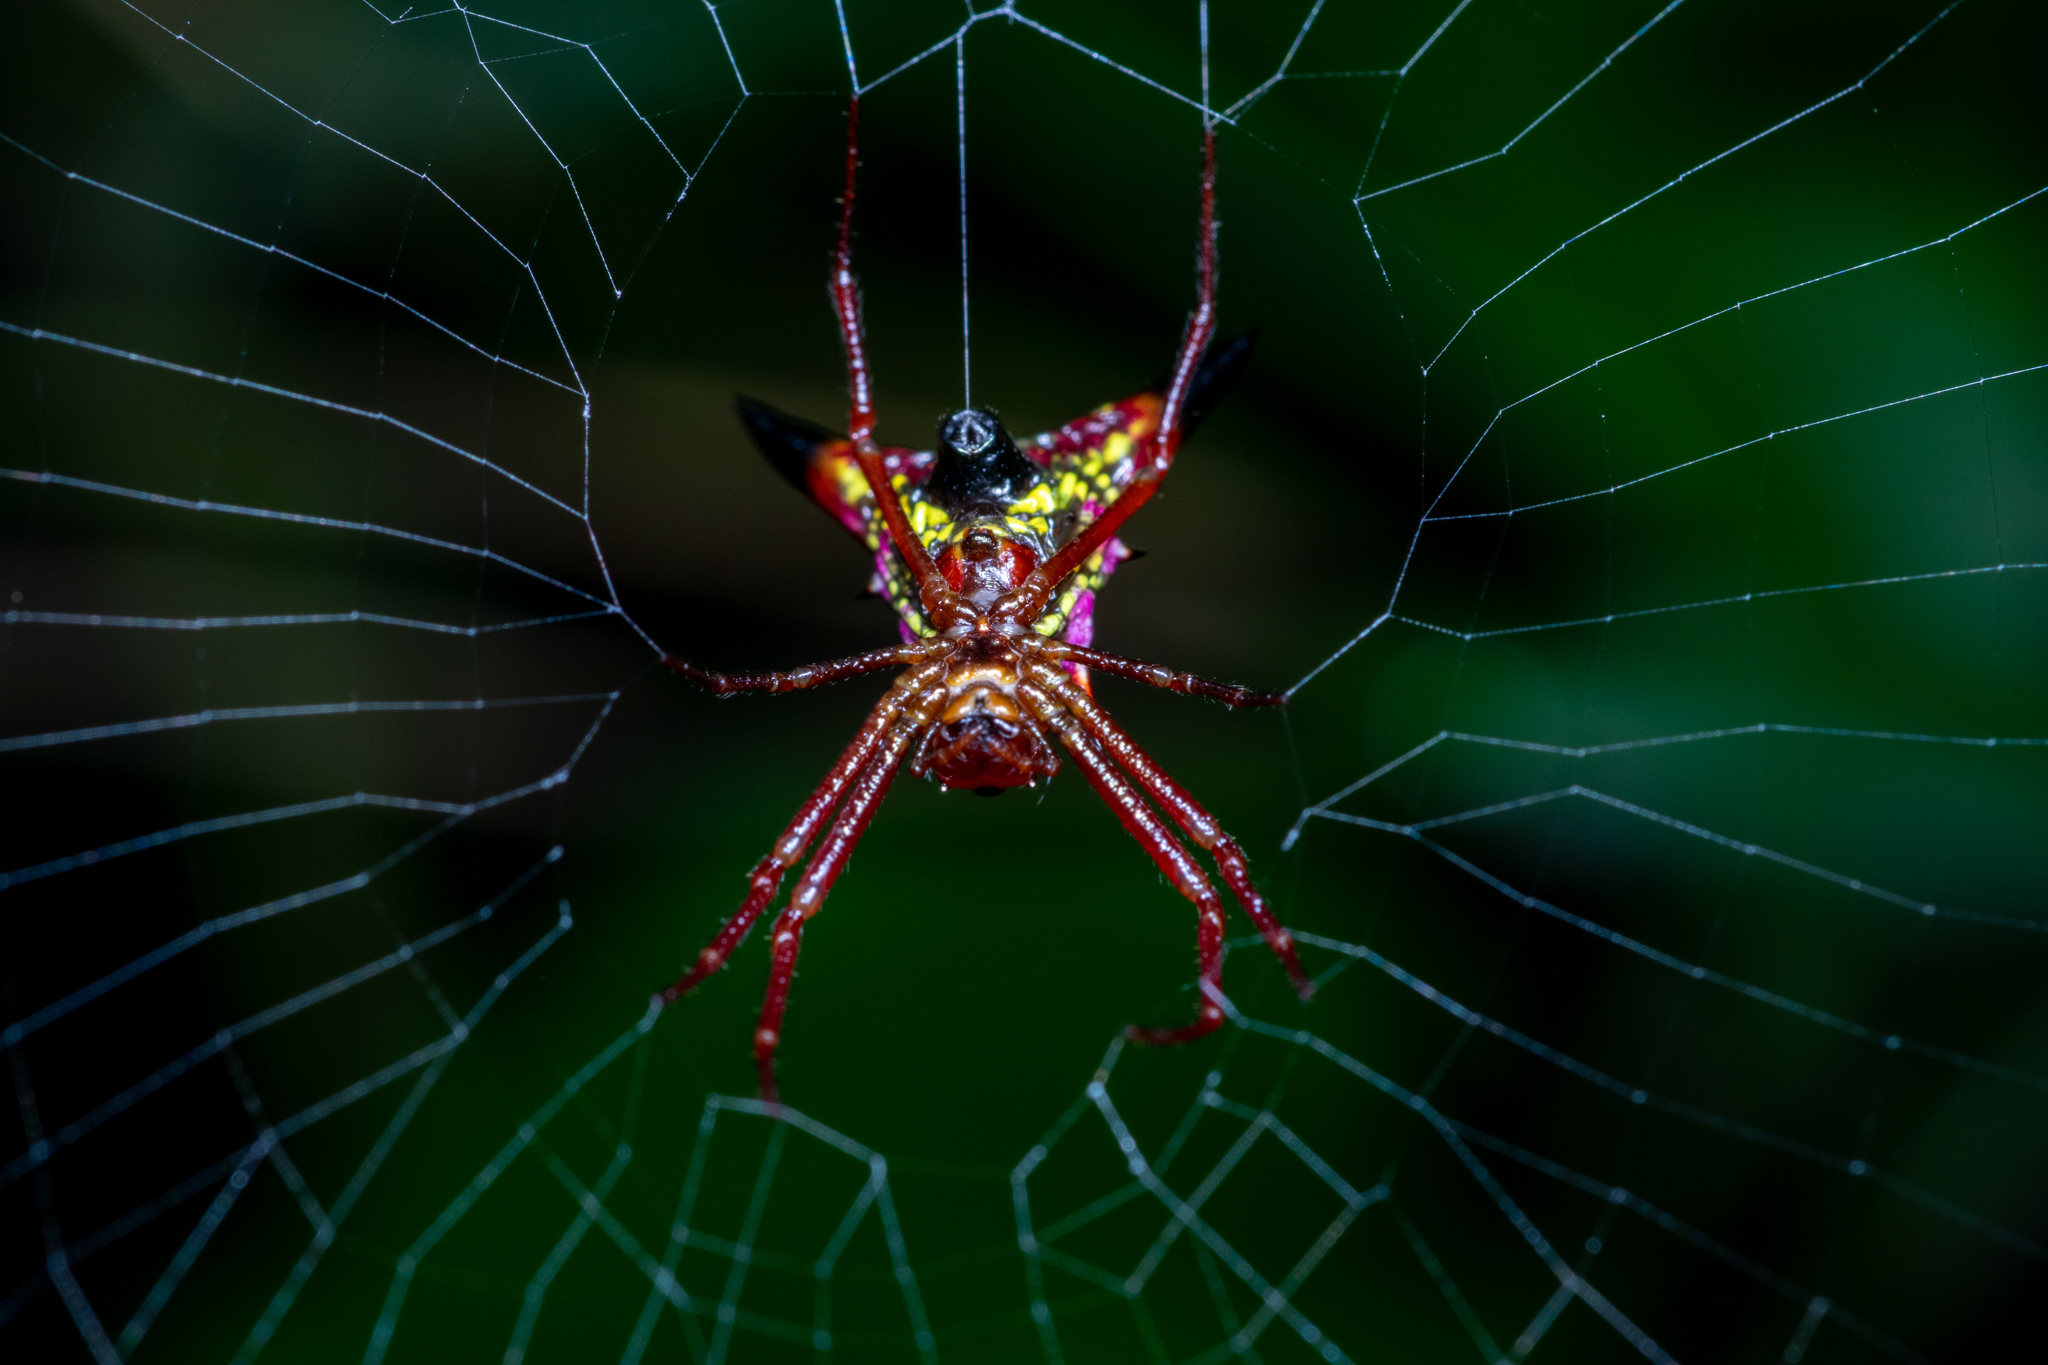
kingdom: Animalia
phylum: Arthropoda
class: Arachnida
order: Araneae
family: Araneidae
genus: Micrathena
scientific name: Micrathena sagittata
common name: Orb weavers
